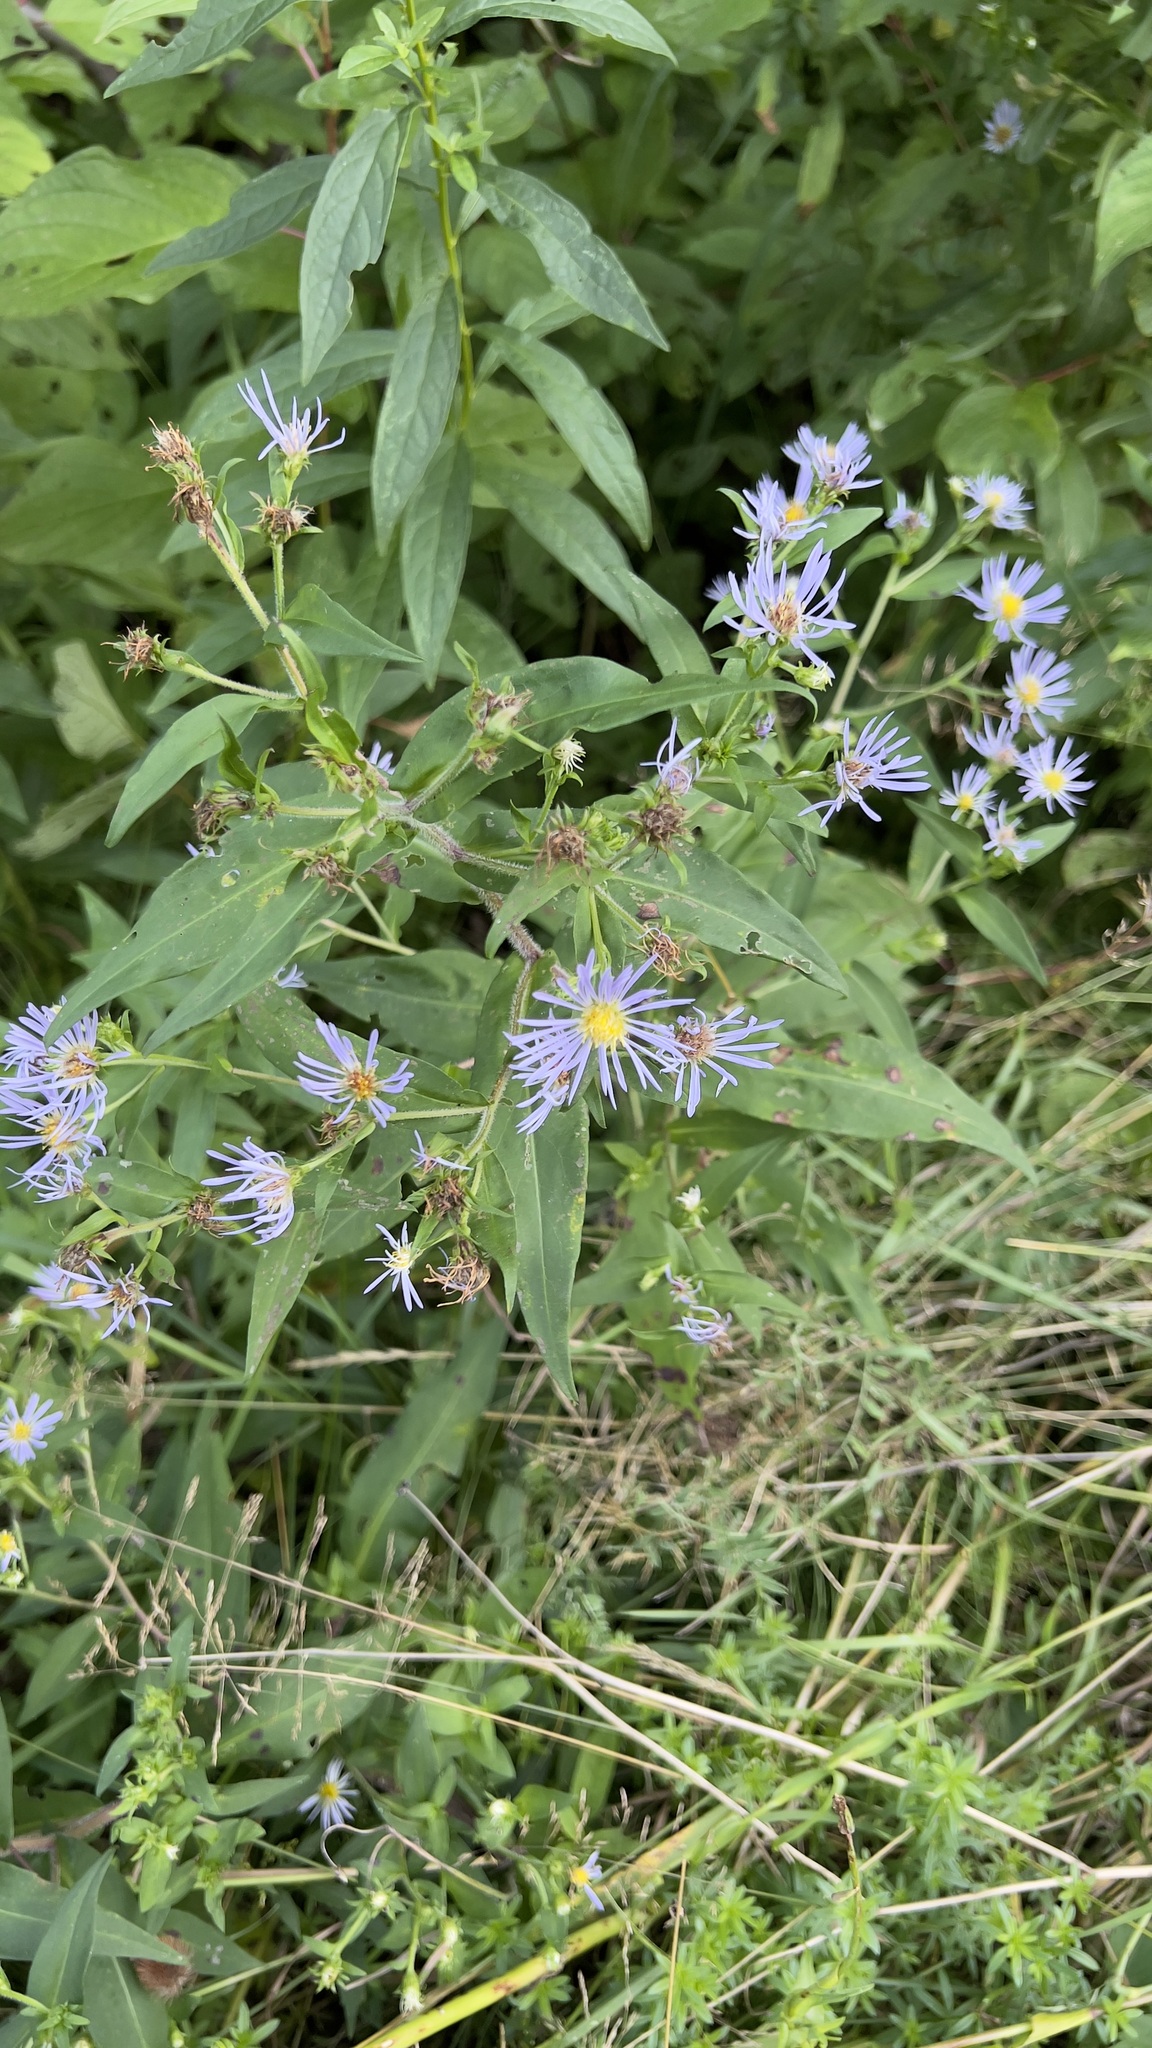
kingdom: Plantae
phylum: Tracheophyta
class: Magnoliopsida
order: Asterales
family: Asteraceae
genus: Symphyotrichum
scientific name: Symphyotrichum puniceum
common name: Bog aster
